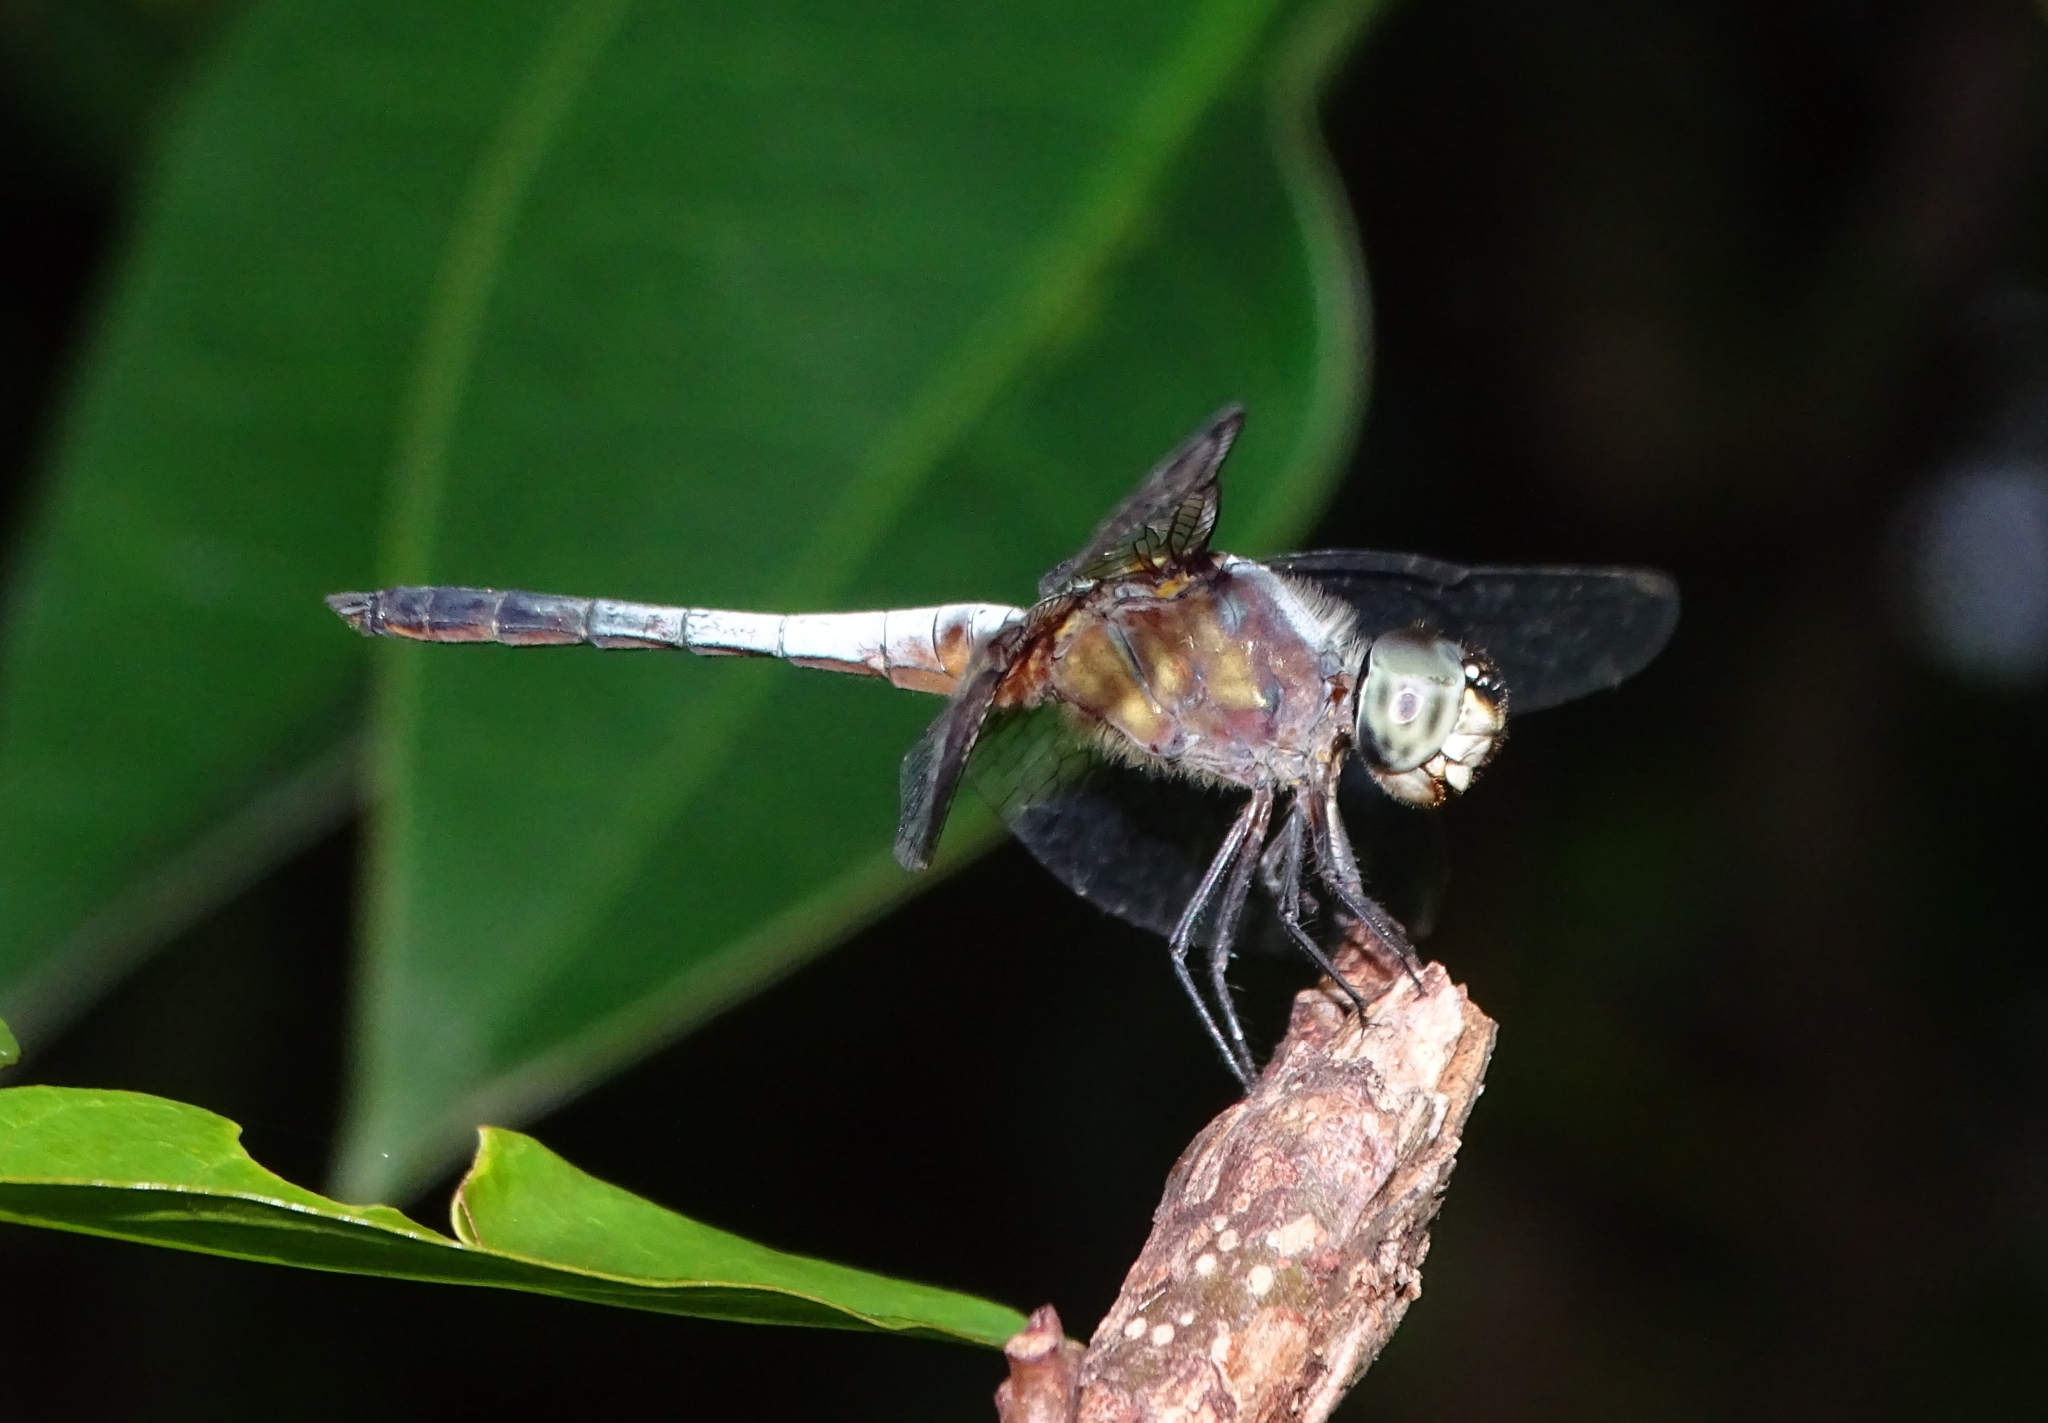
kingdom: Animalia
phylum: Arthropoda
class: Insecta
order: Odonata
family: Libellulidae
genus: Brachydiplax
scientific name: Brachydiplax chalybea
